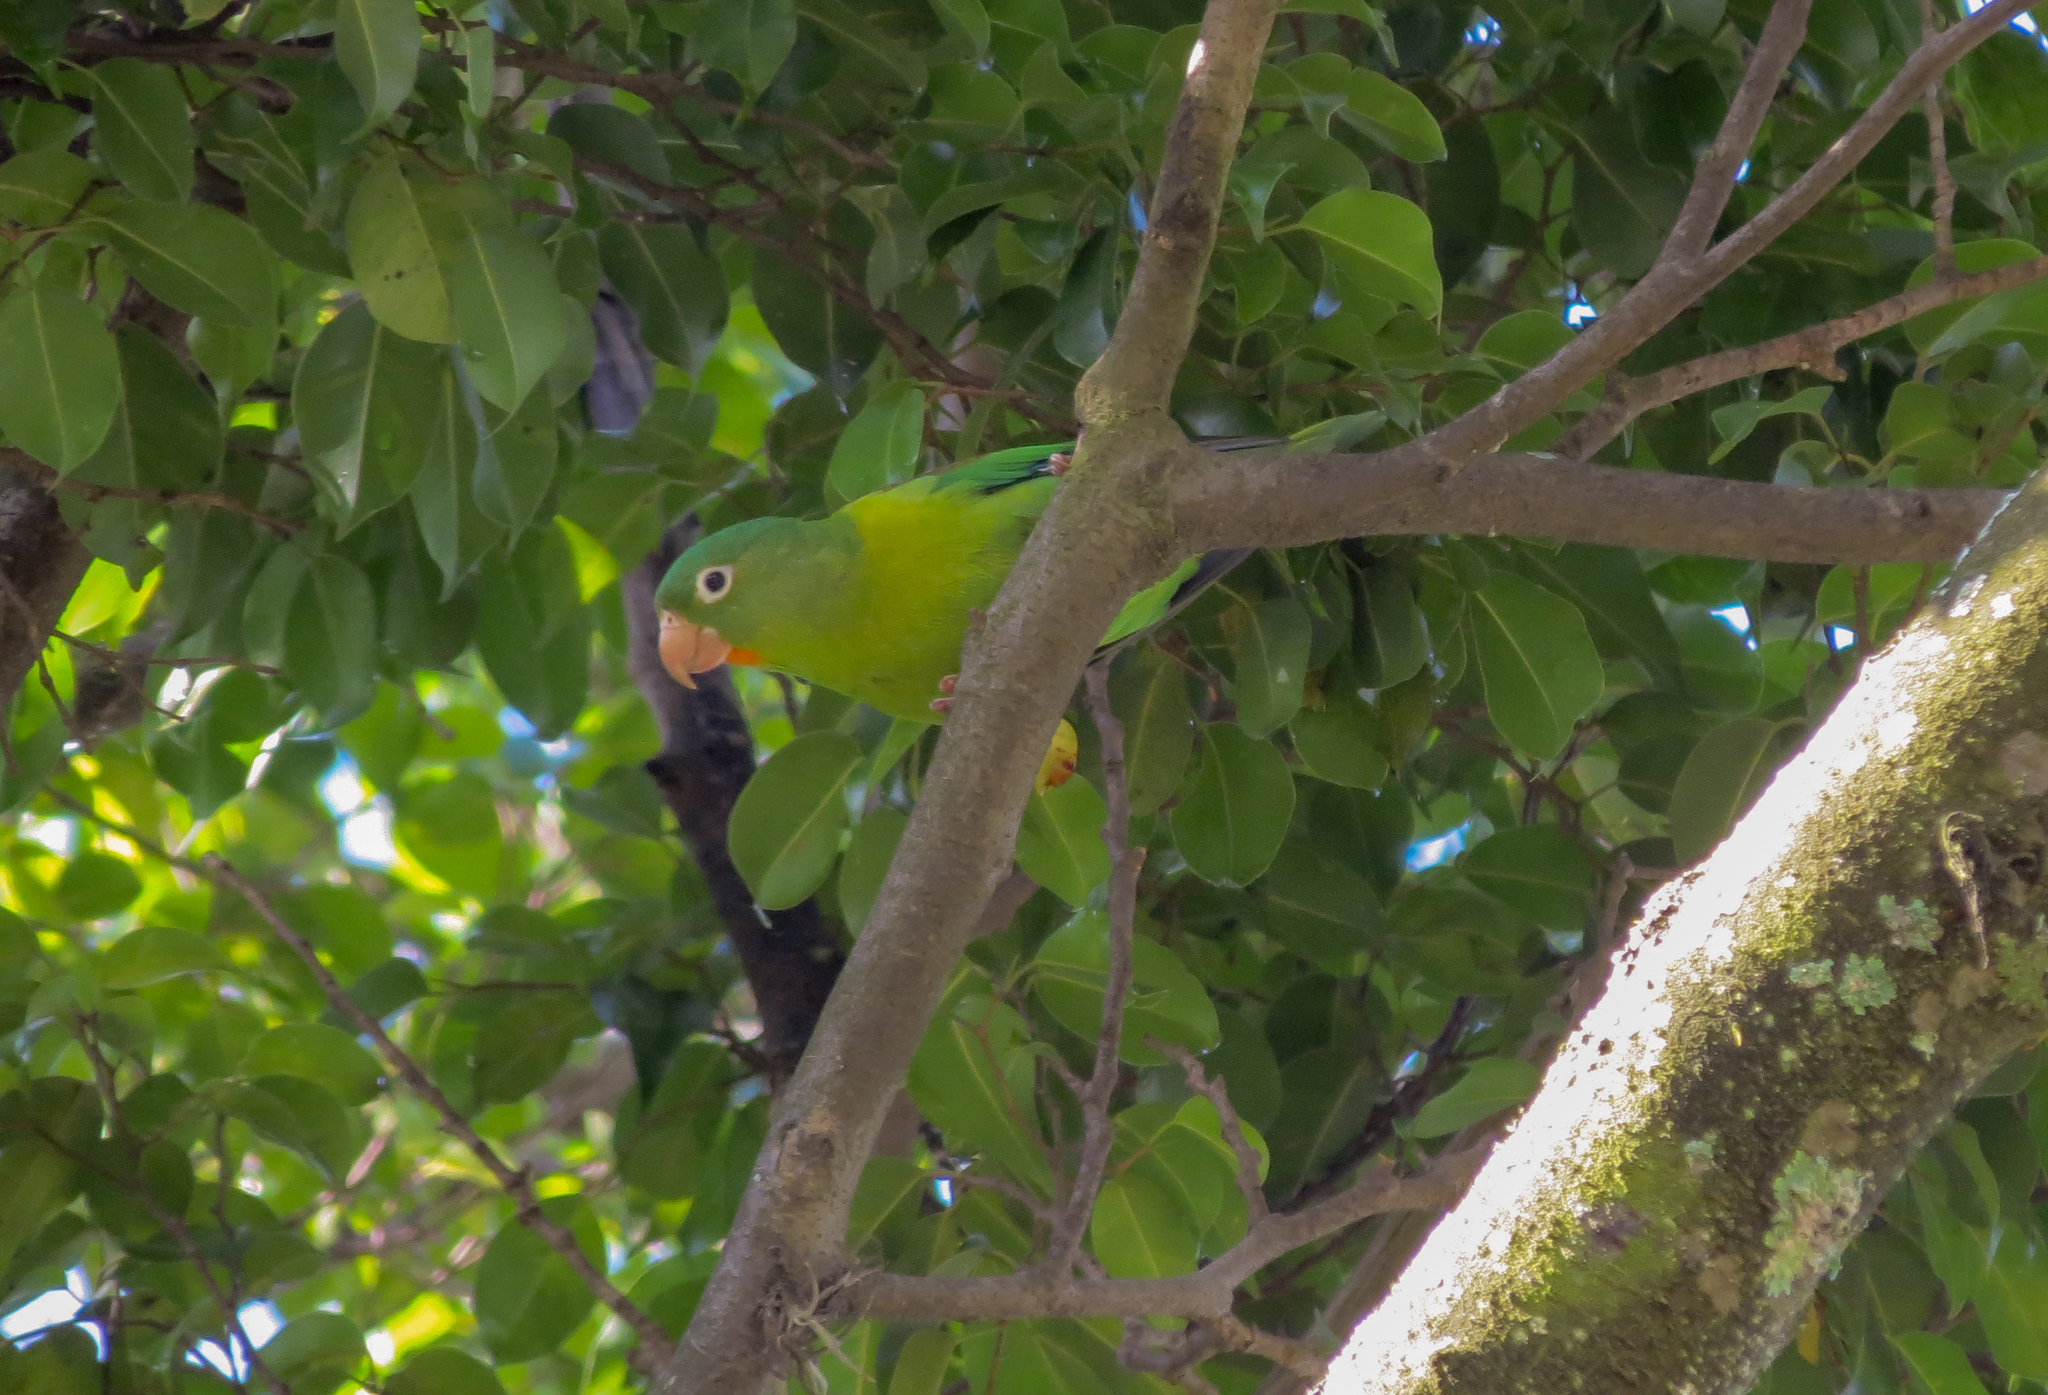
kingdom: Animalia
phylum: Chordata
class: Aves
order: Psittaciformes
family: Psittacidae
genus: Brotogeris
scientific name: Brotogeris jugularis
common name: Orange-chinned parakeet
